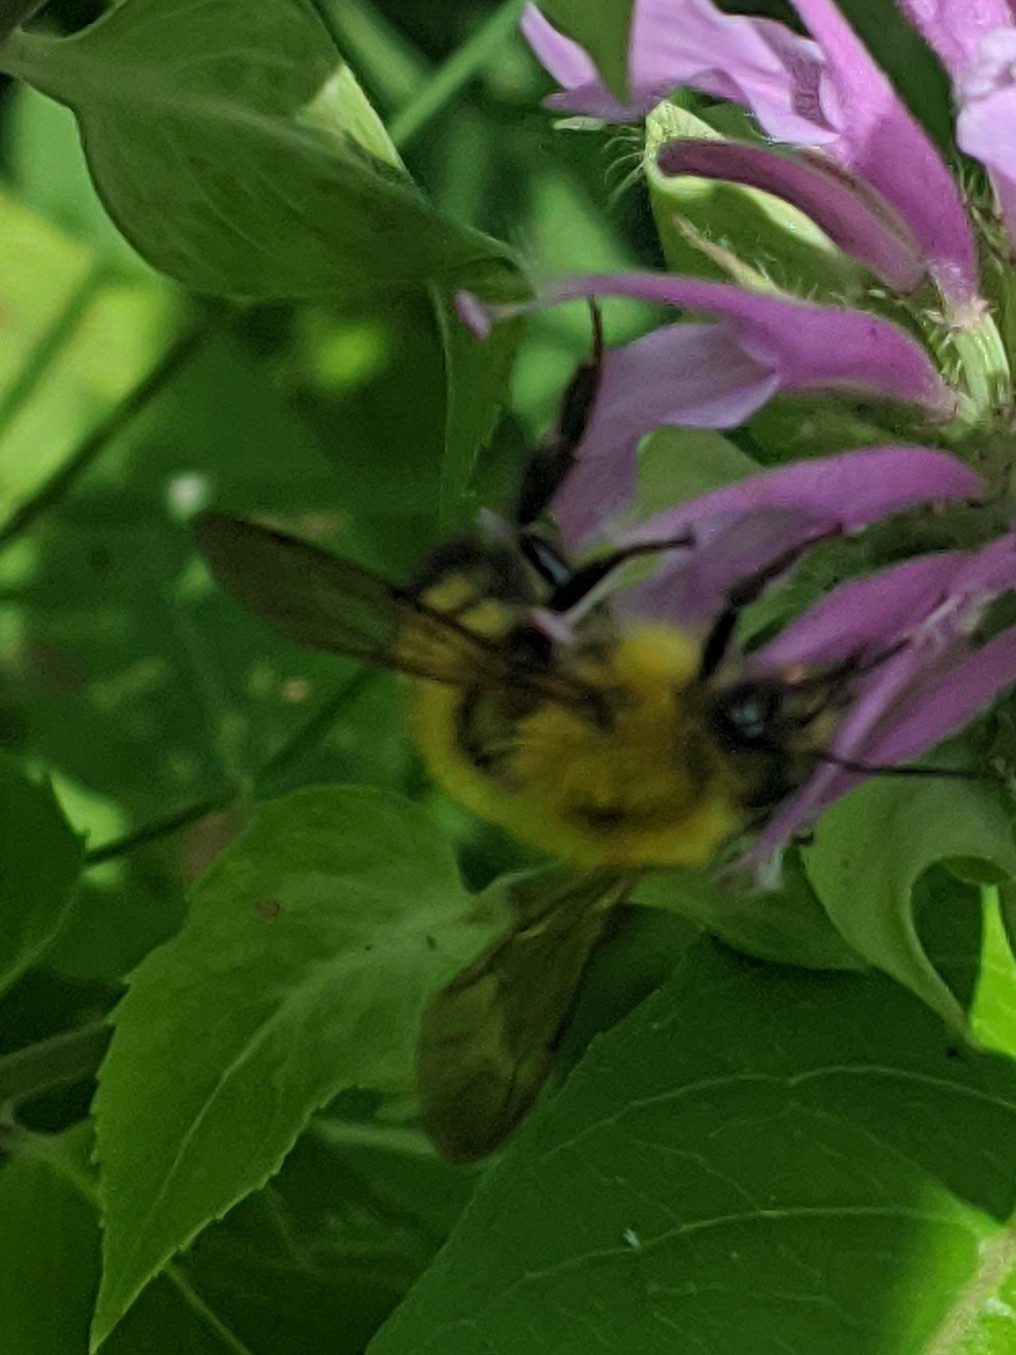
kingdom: Animalia
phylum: Arthropoda
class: Insecta
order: Hymenoptera
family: Apidae
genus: Bombus
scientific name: Bombus perplexus
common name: Confusing bumble bee
